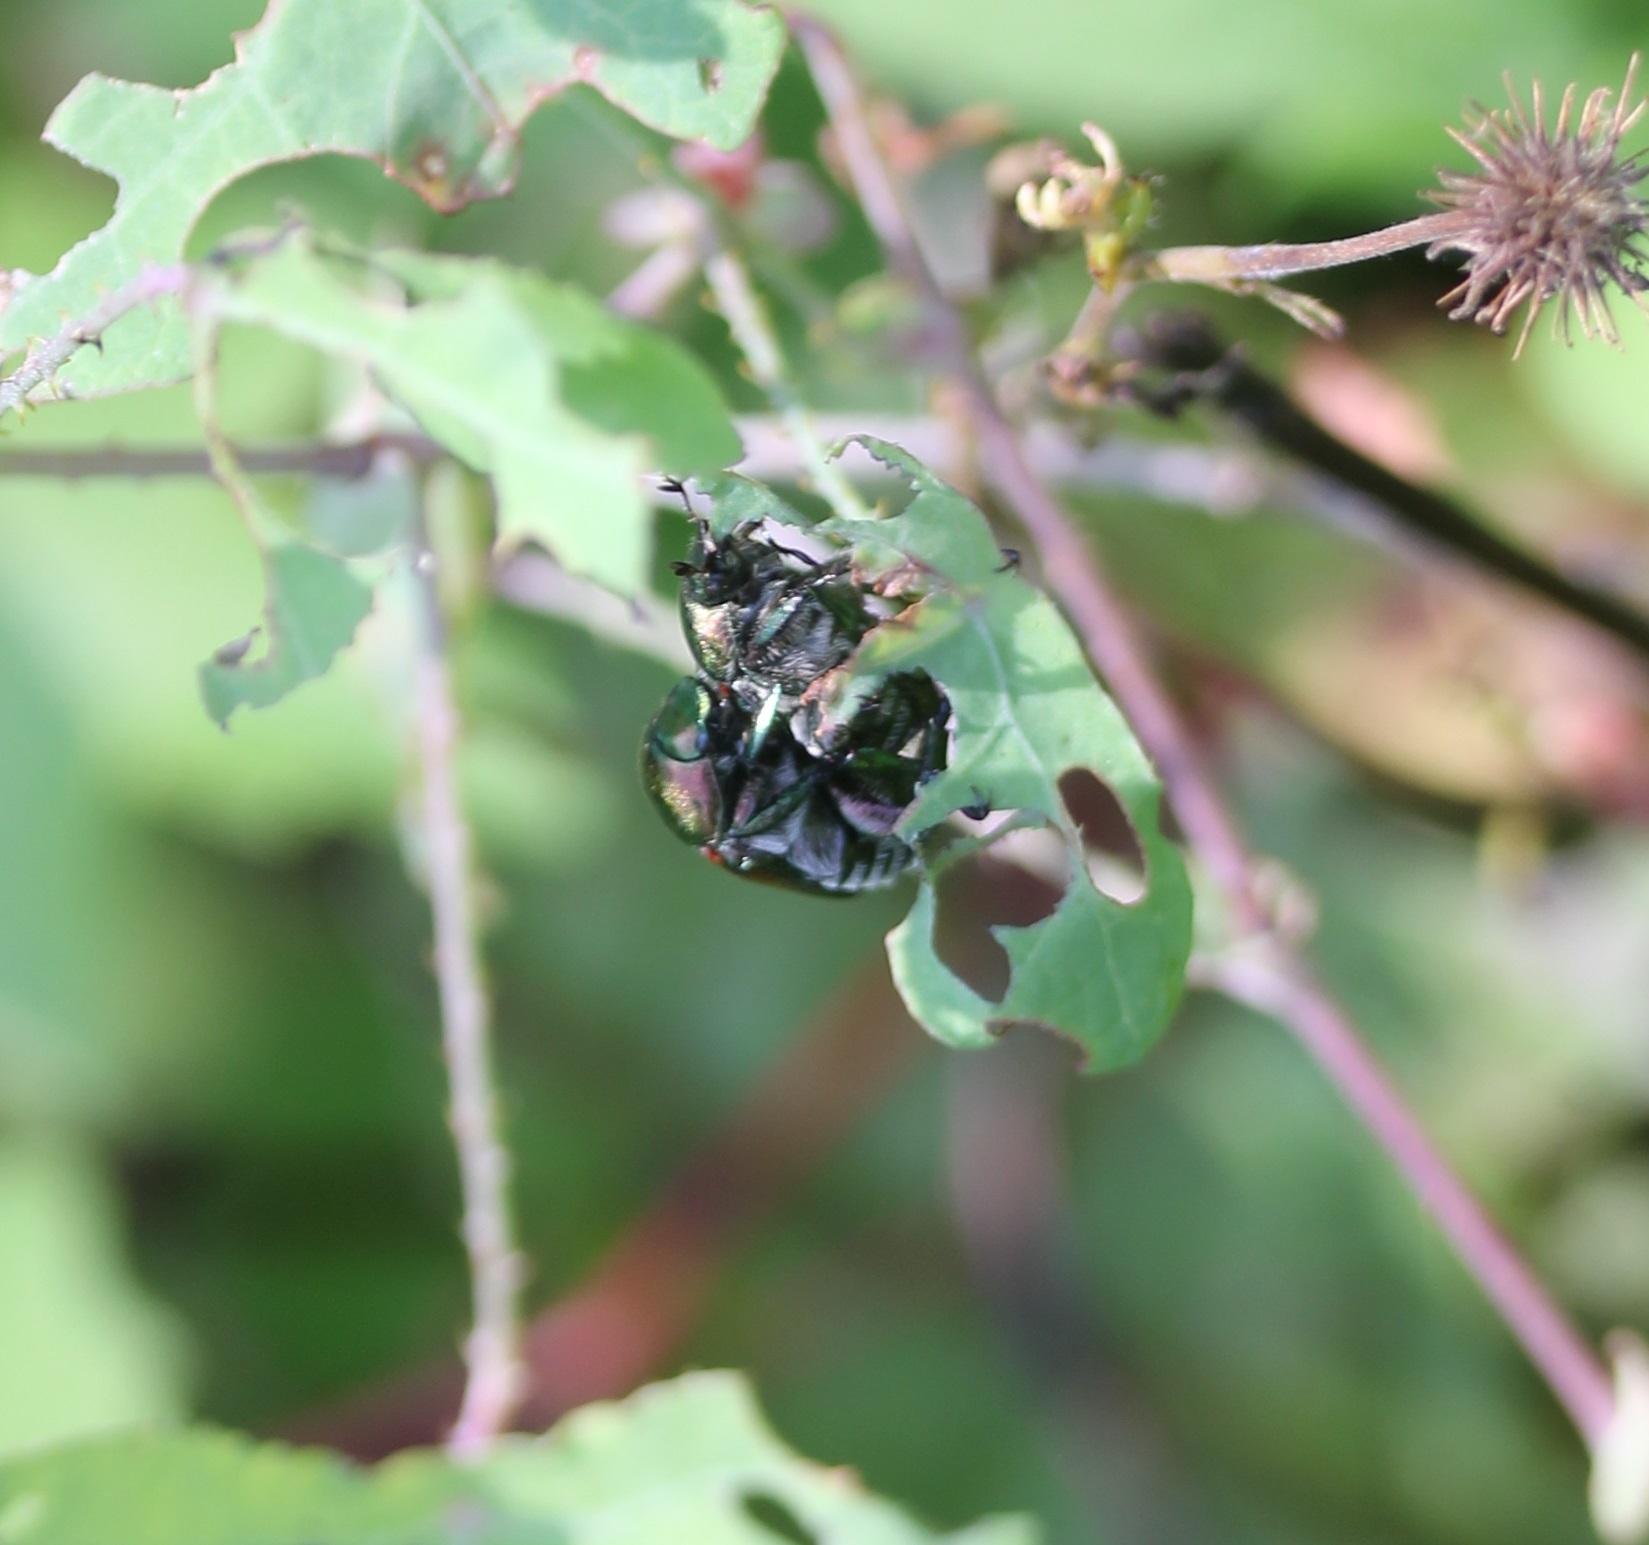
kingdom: Animalia
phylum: Arthropoda
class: Insecta
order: Coleoptera
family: Scarabaeidae
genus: Popillia
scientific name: Popillia japonica
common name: Japanese beetle
